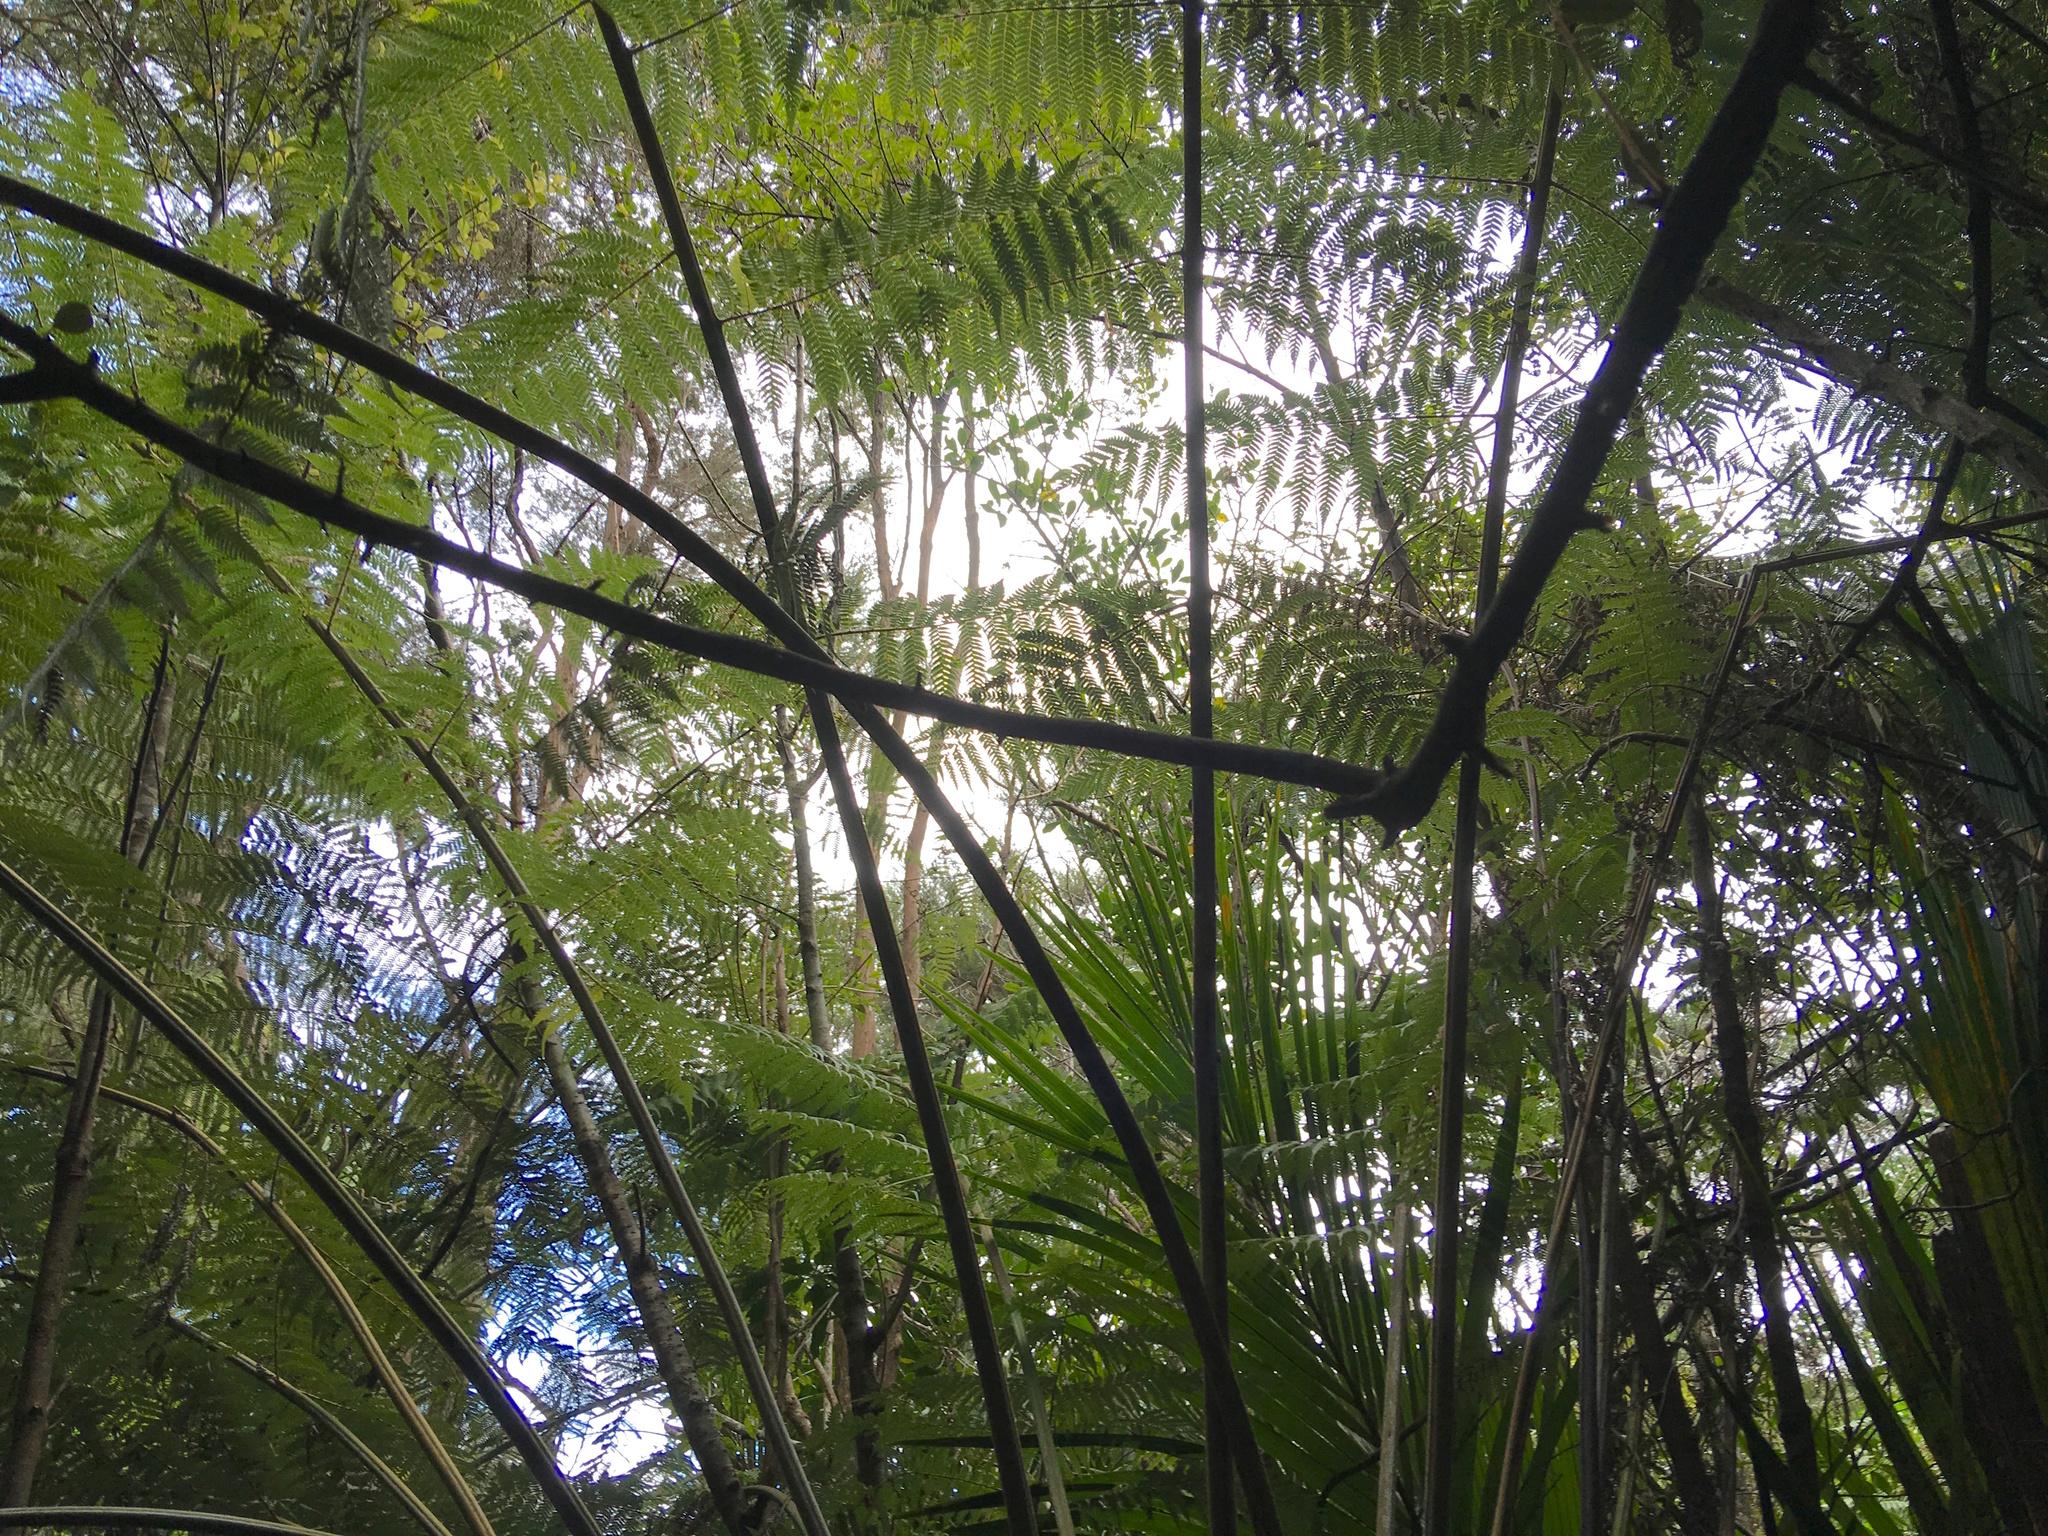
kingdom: Plantae
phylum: Tracheophyta
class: Polypodiopsida
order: Cyatheales
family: Cyatheaceae
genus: Alsophila
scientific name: Alsophila dealbata
